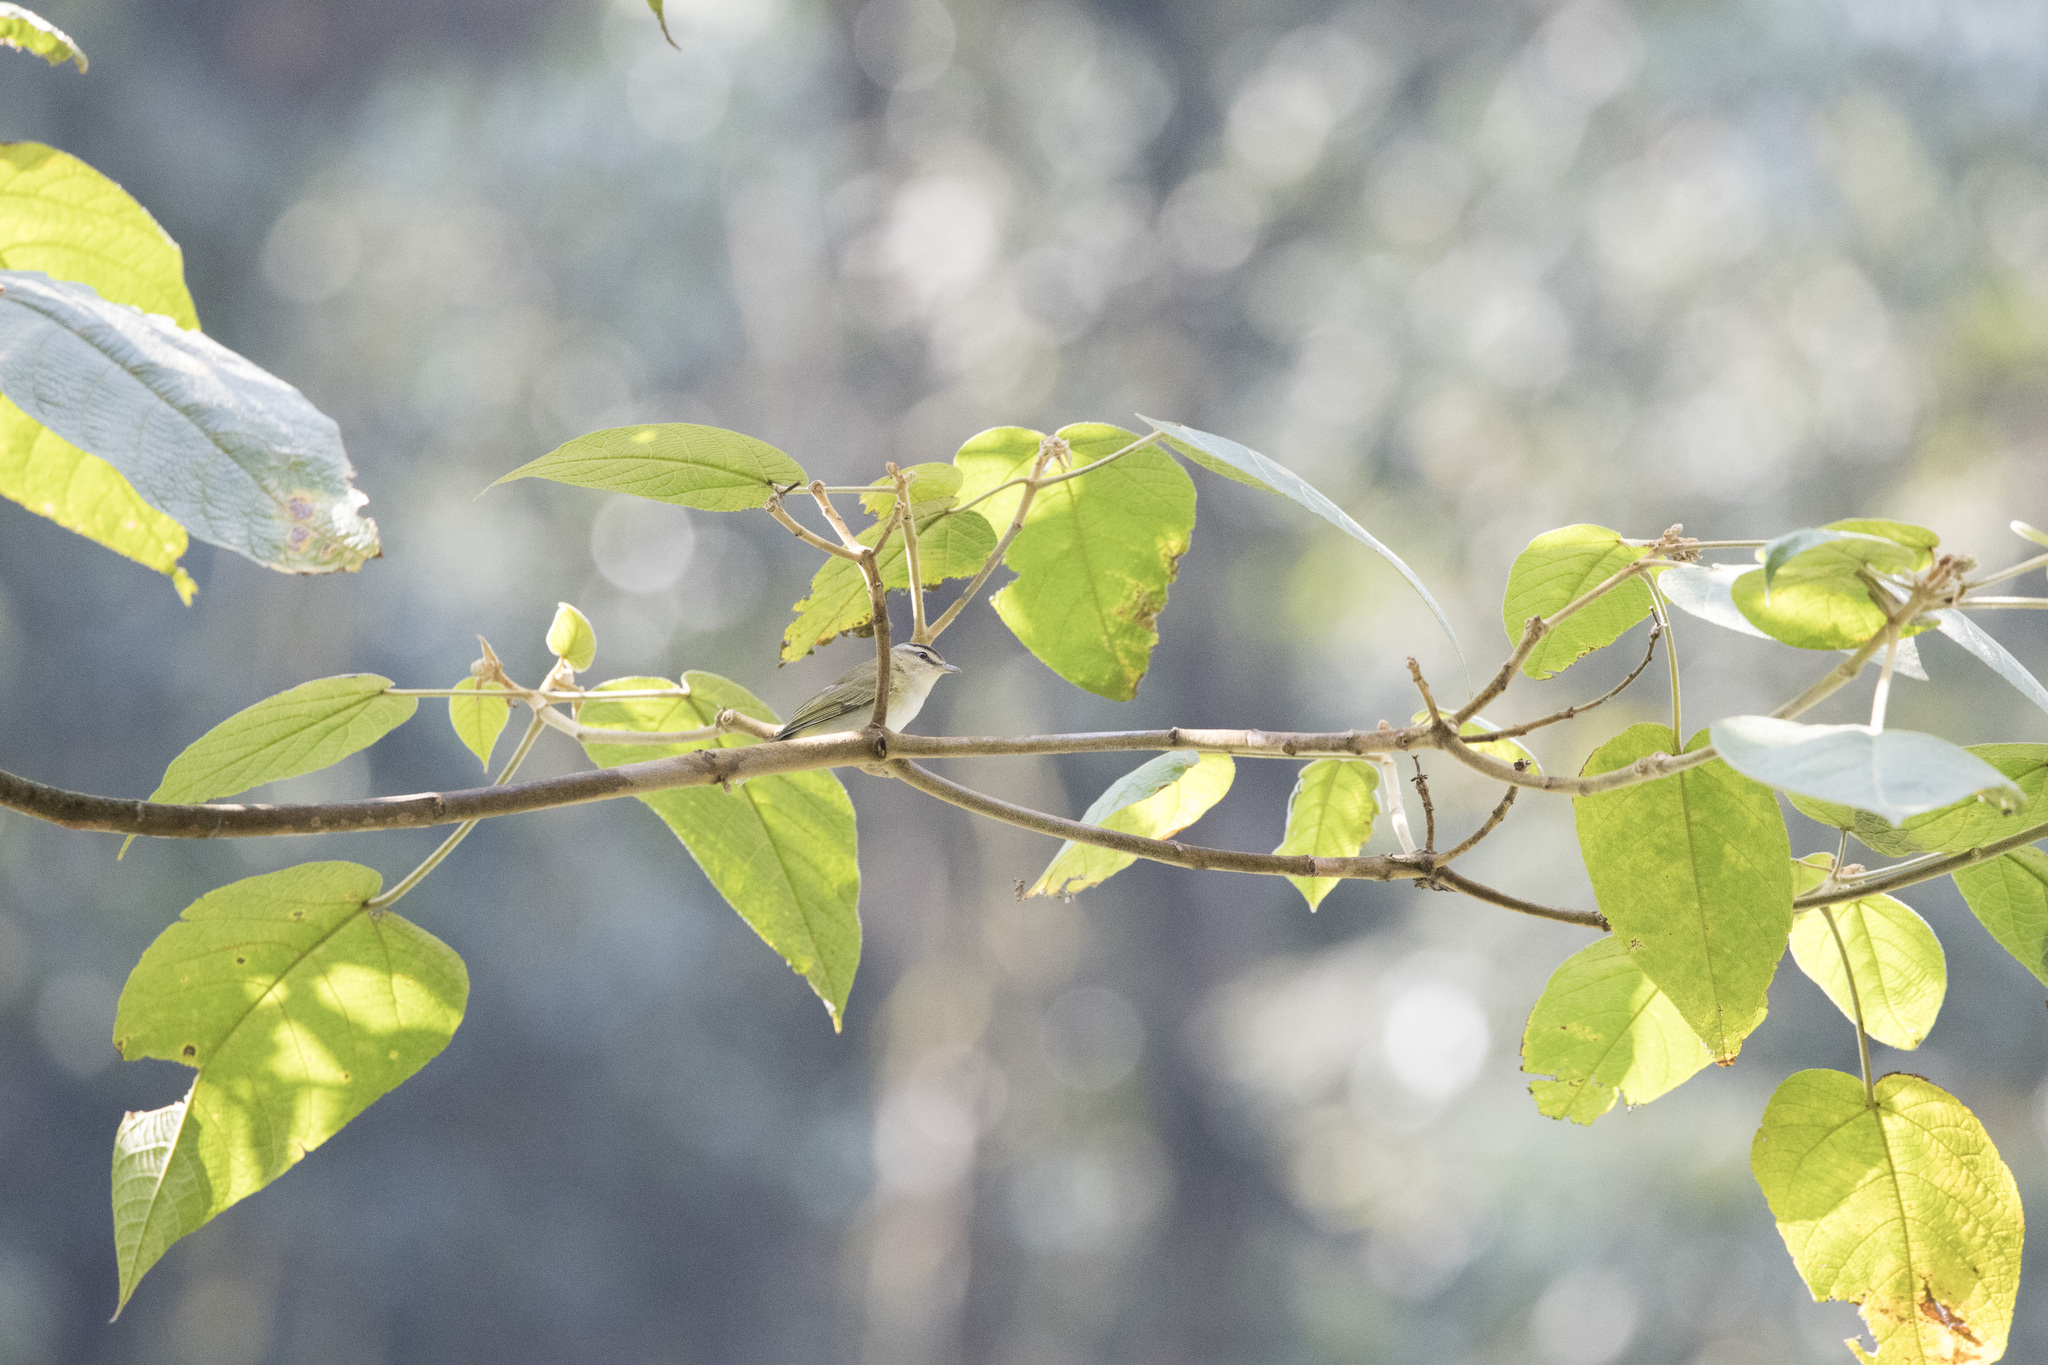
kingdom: Animalia
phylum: Chordata
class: Aves
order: Passeriformes
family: Vireonidae
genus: Vireo
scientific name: Vireo olivaceus
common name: Red-eyed vireo
